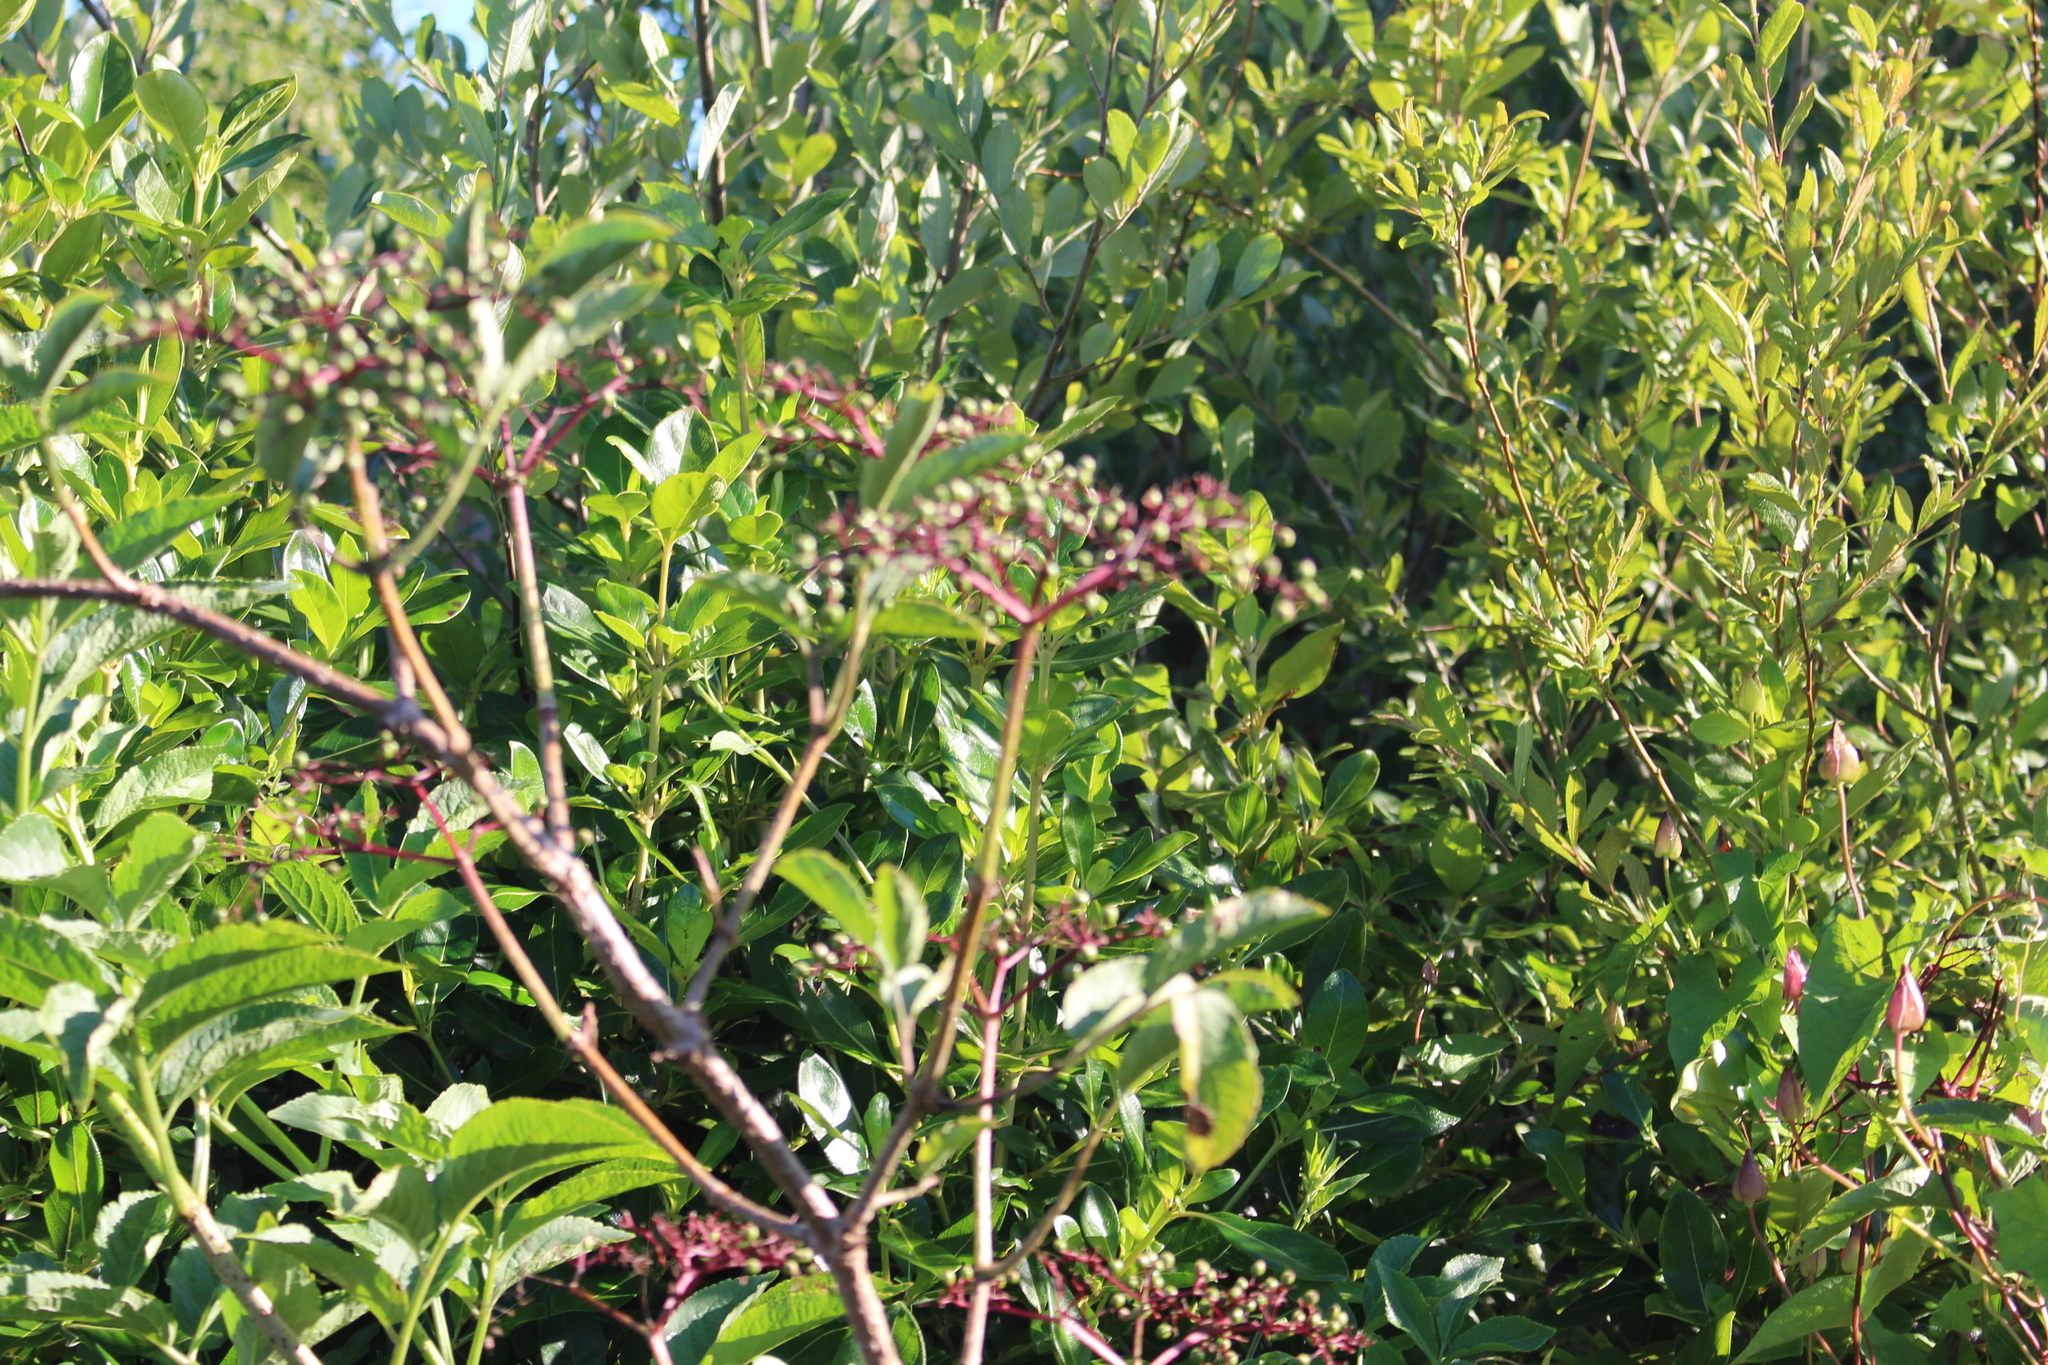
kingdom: Plantae
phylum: Tracheophyta
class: Magnoliopsida
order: Dipsacales
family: Viburnaceae
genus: Sambucus
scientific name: Sambucus nigra
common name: Elder
